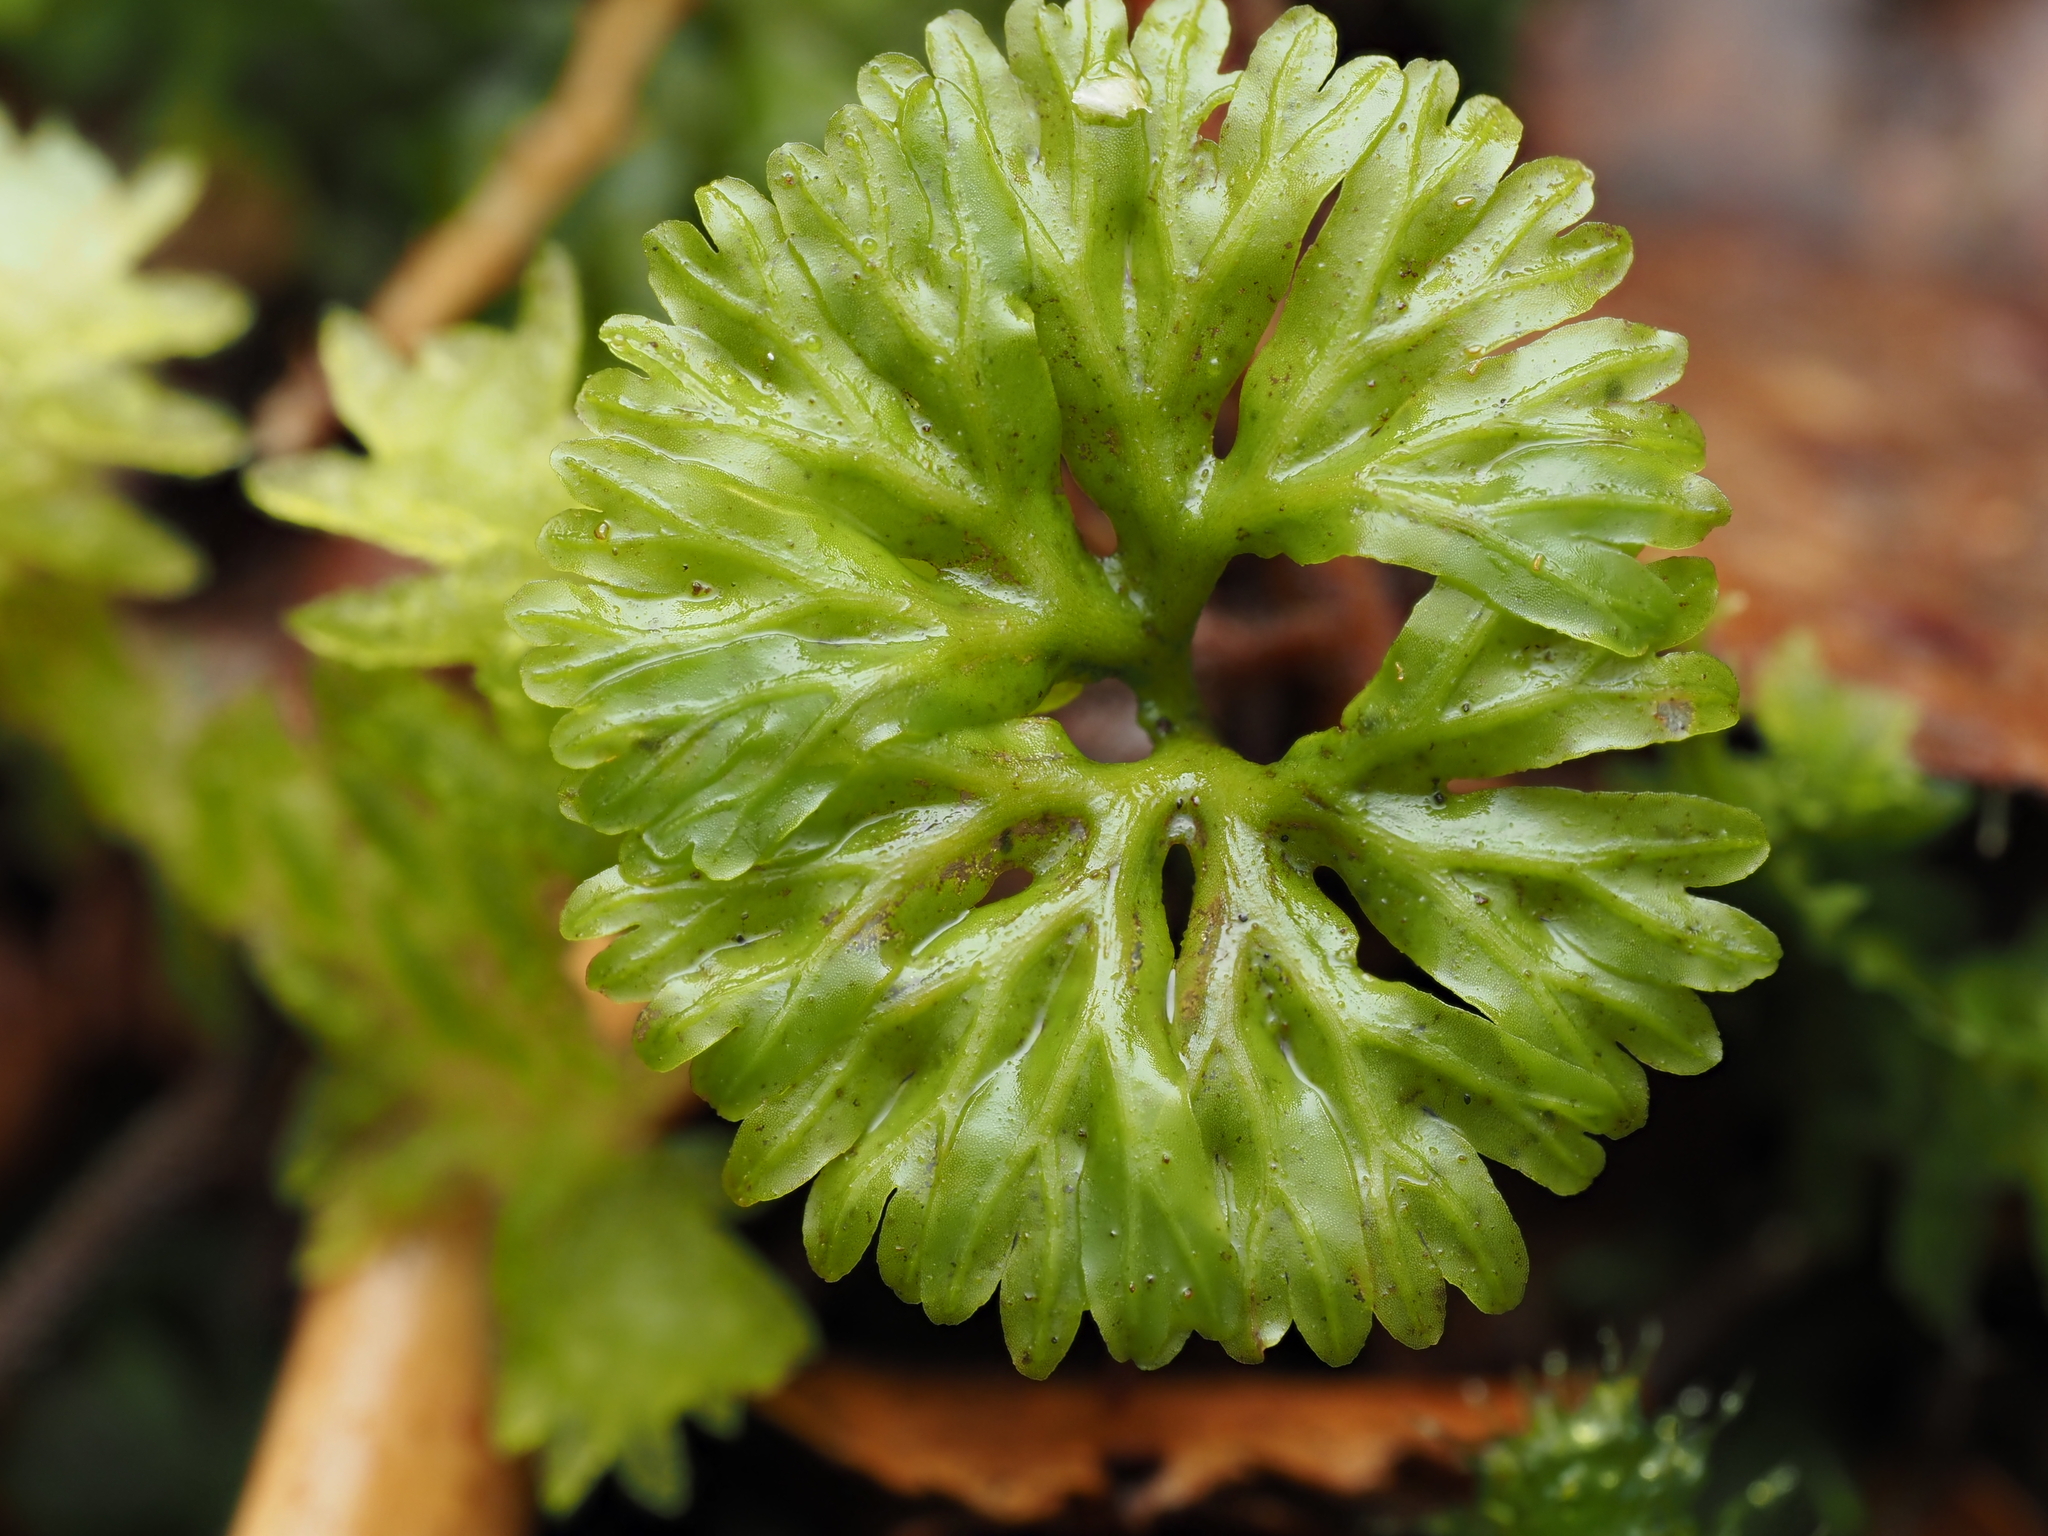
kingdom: Plantae
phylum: Marchantiophyta
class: Jungermanniopsida
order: Pallaviciniales
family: Hymenophytaceae
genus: Hymenophyton
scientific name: Hymenophyton flabellatum
